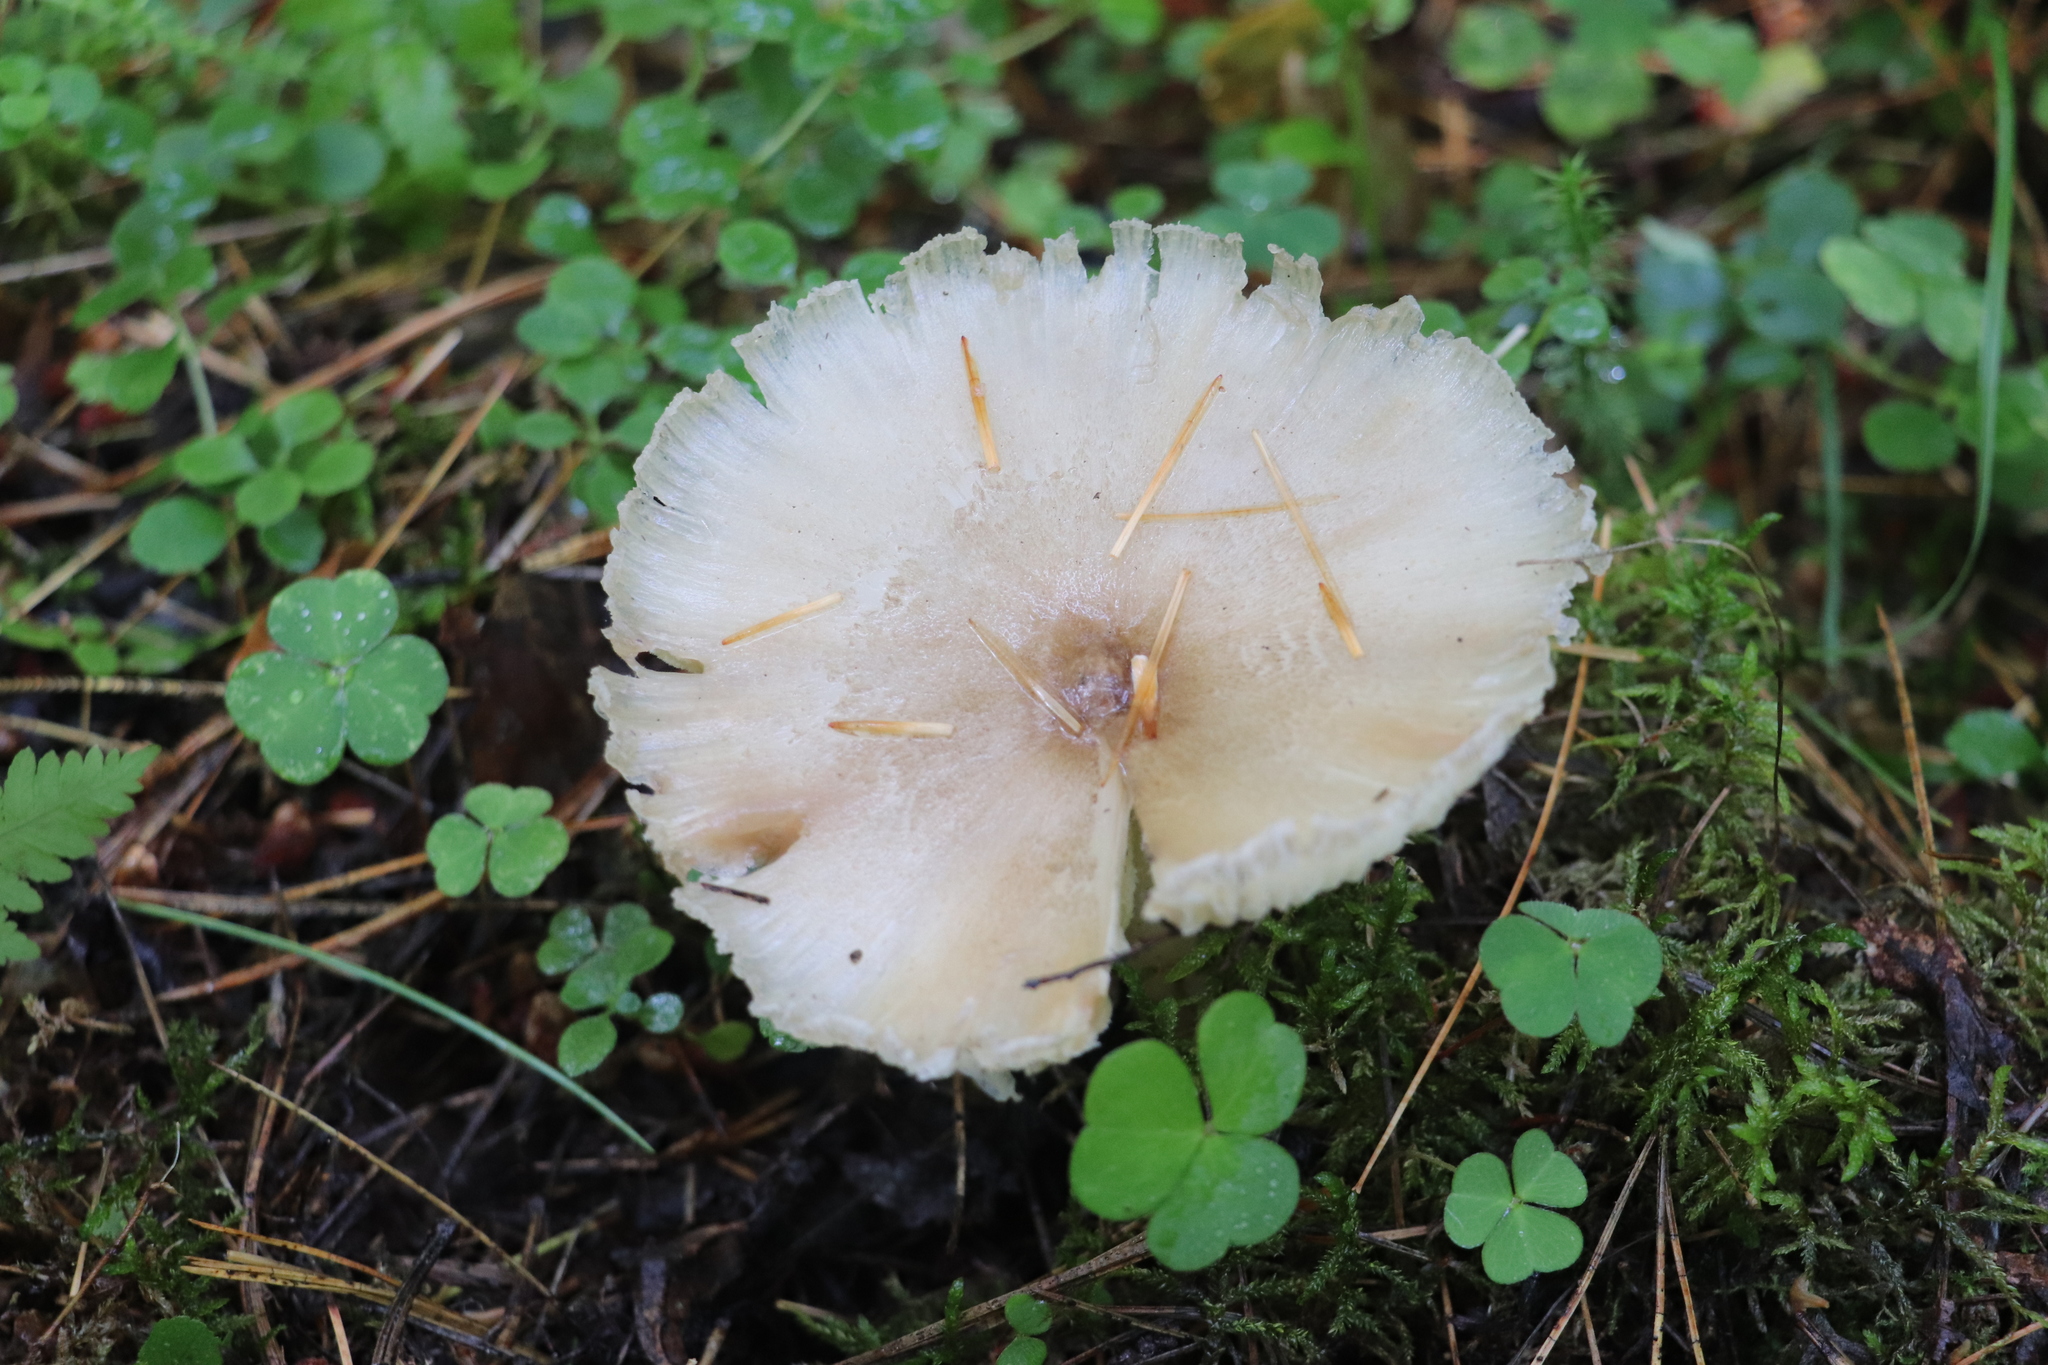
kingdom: Fungi
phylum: Basidiomycota
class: Agaricomycetes
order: Agaricales
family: Tricholomataceae
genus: Megacollybia
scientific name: Megacollybia platyphylla
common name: Whitelaced shank
